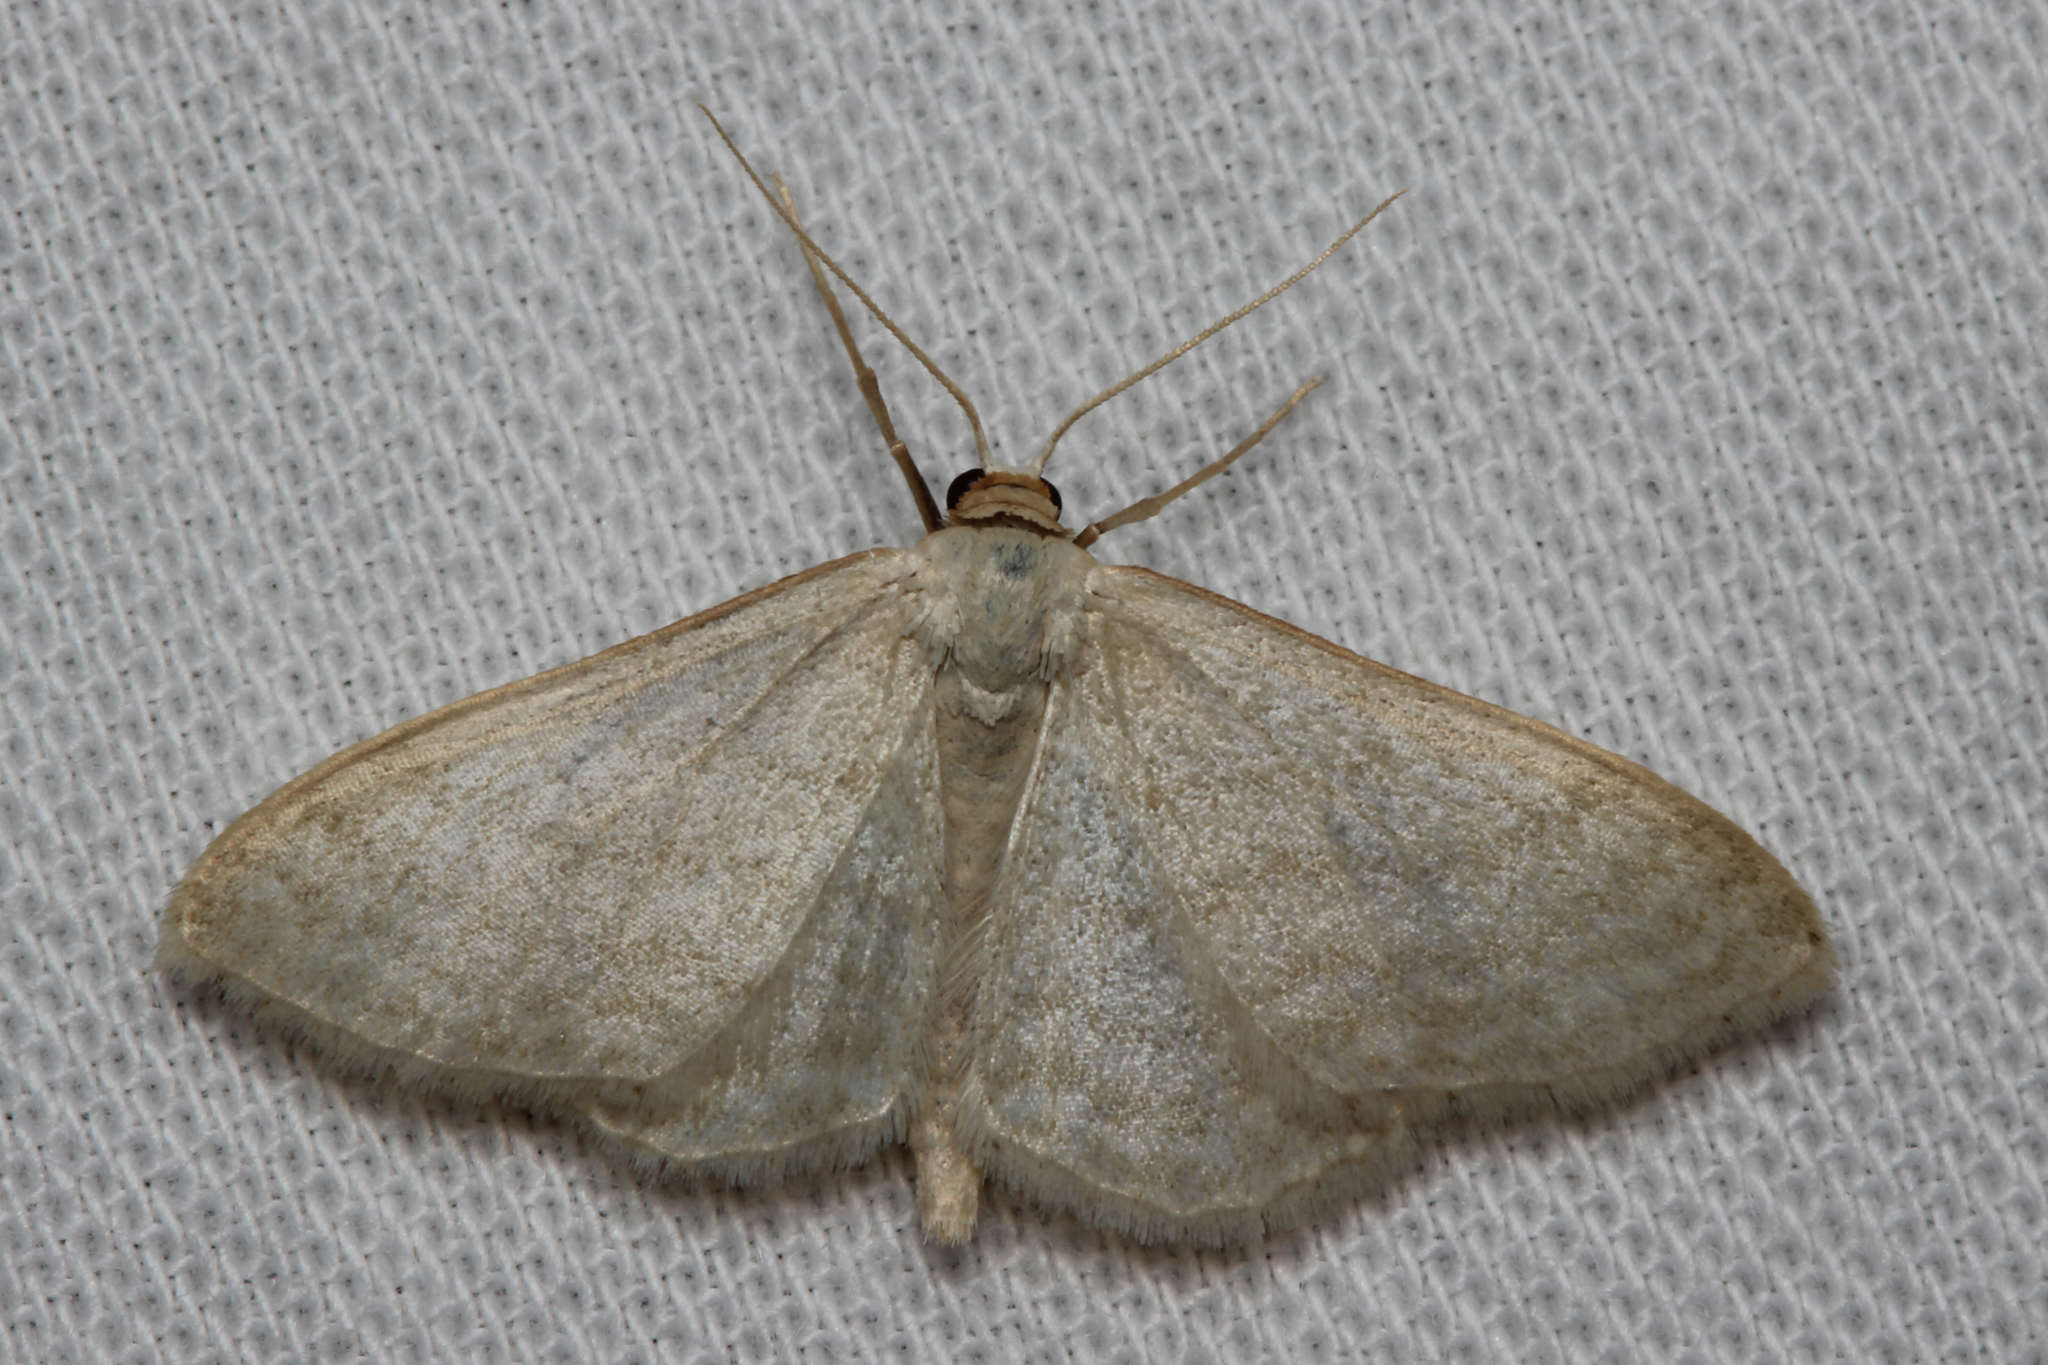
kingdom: Animalia
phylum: Arthropoda
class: Insecta
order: Lepidoptera
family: Geometridae
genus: Idaea
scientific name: Idaea subsericeata
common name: Satin wave
